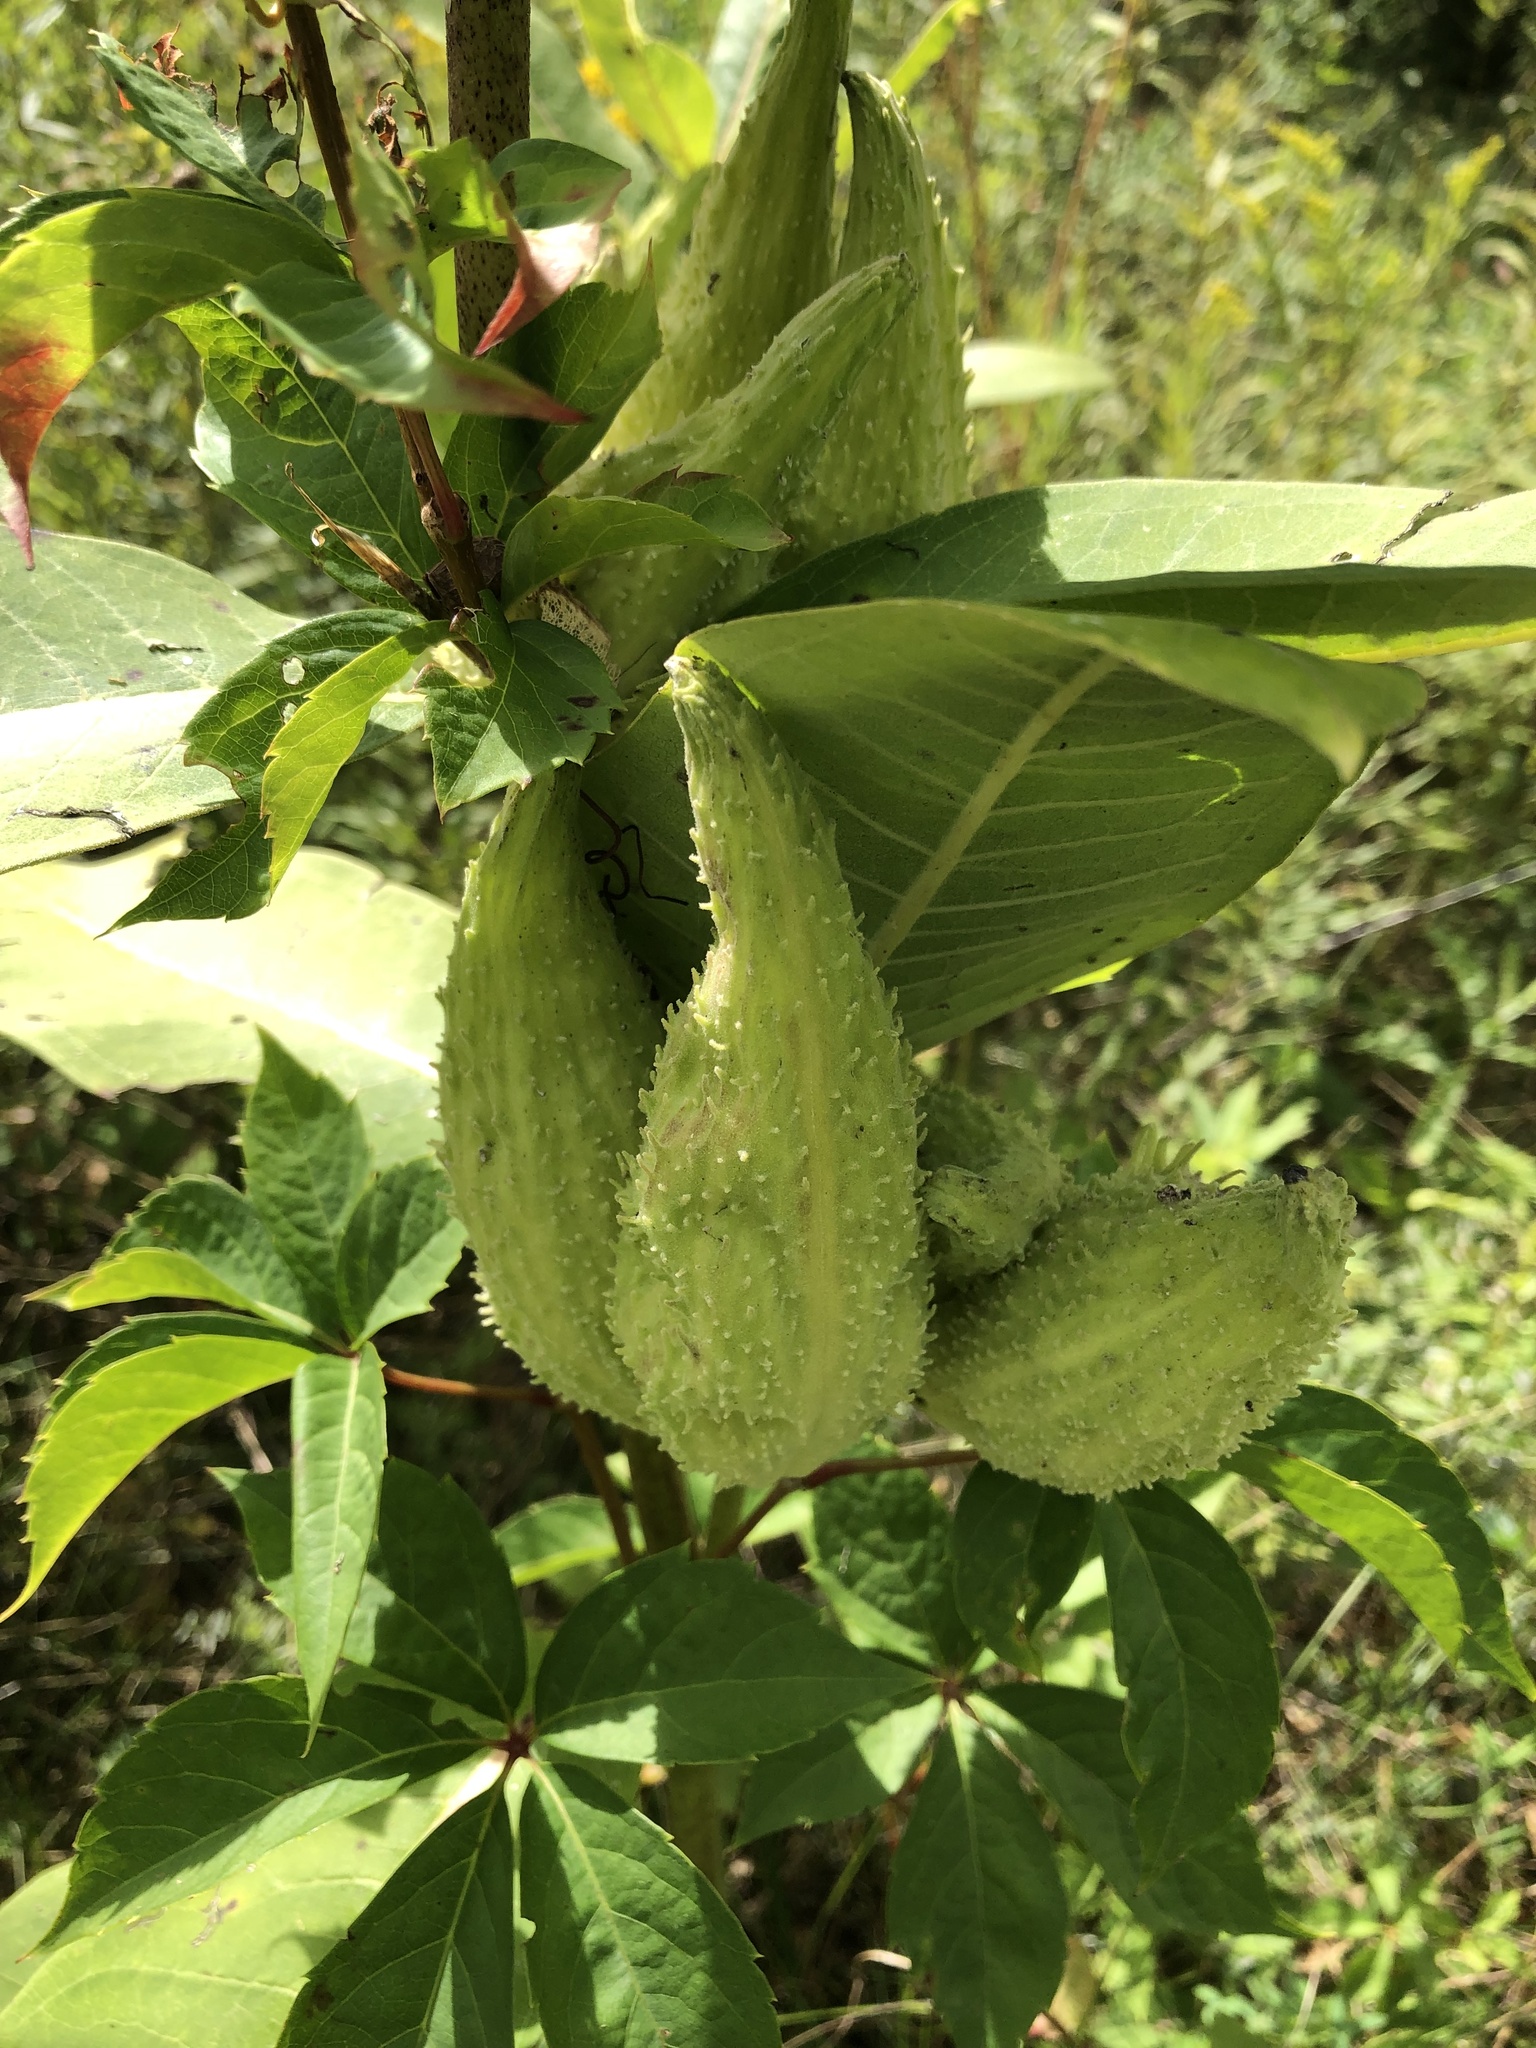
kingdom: Plantae
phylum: Tracheophyta
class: Magnoliopsida
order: Gentianales
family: Apocynaceae
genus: Asclepias
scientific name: Asclepias syriaca
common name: Common milkweed
